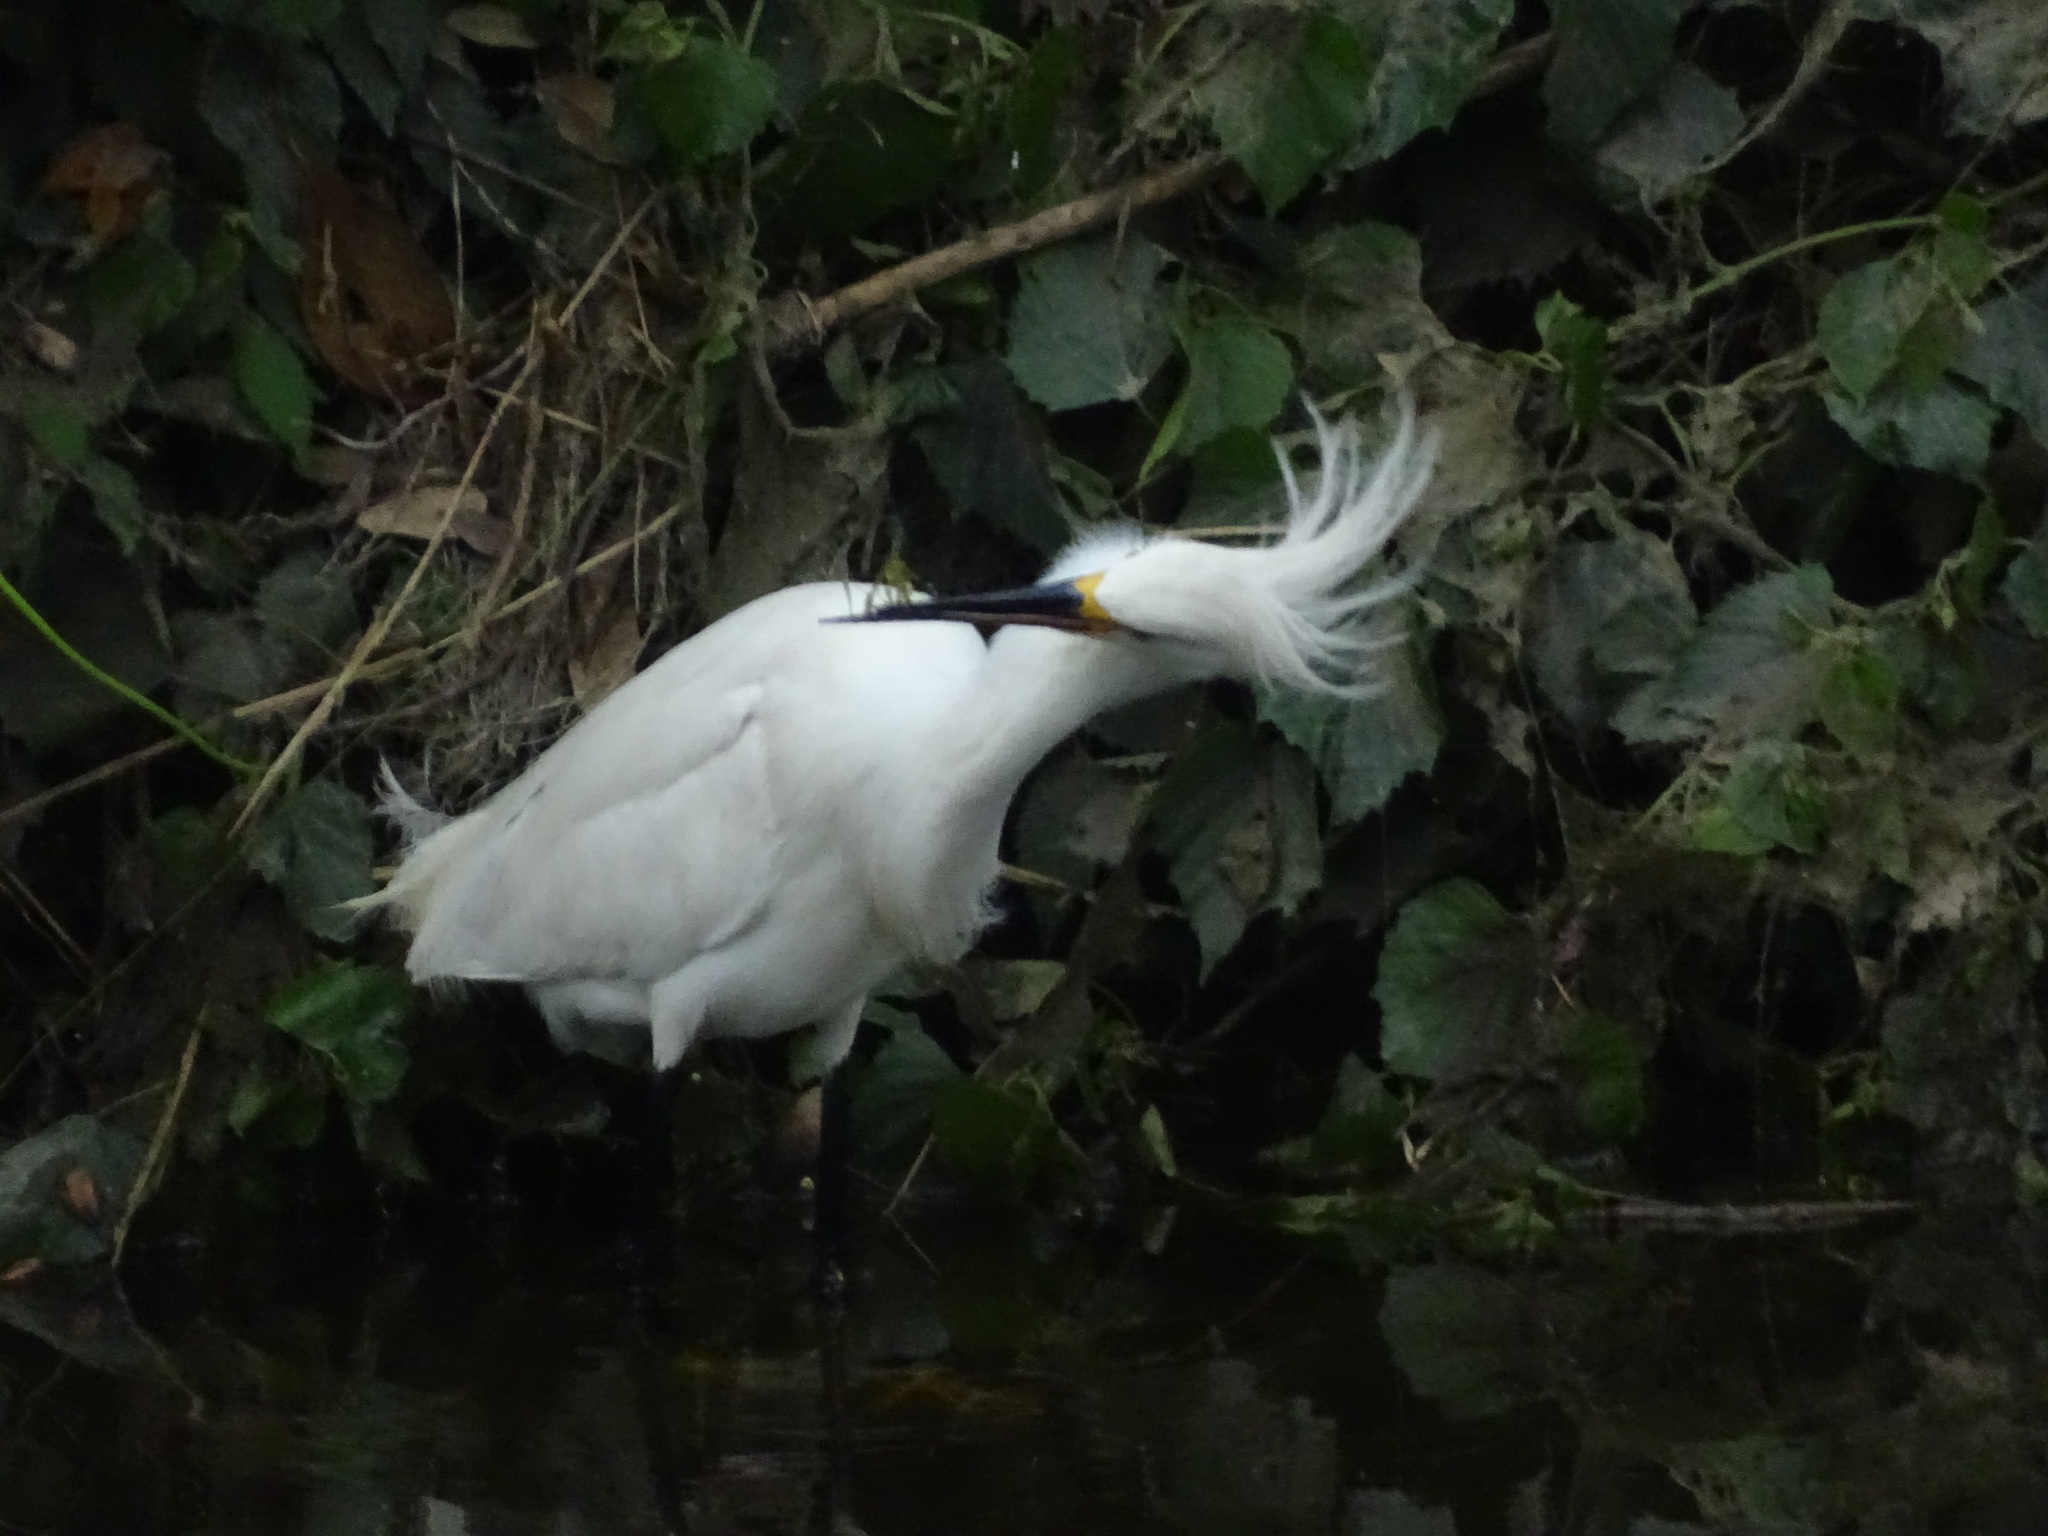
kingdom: Animalia
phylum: Chordata
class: Aves
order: Pelecaniformes
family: Ardeidae
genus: Egretta
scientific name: Egretta thula
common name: Snowy egret
